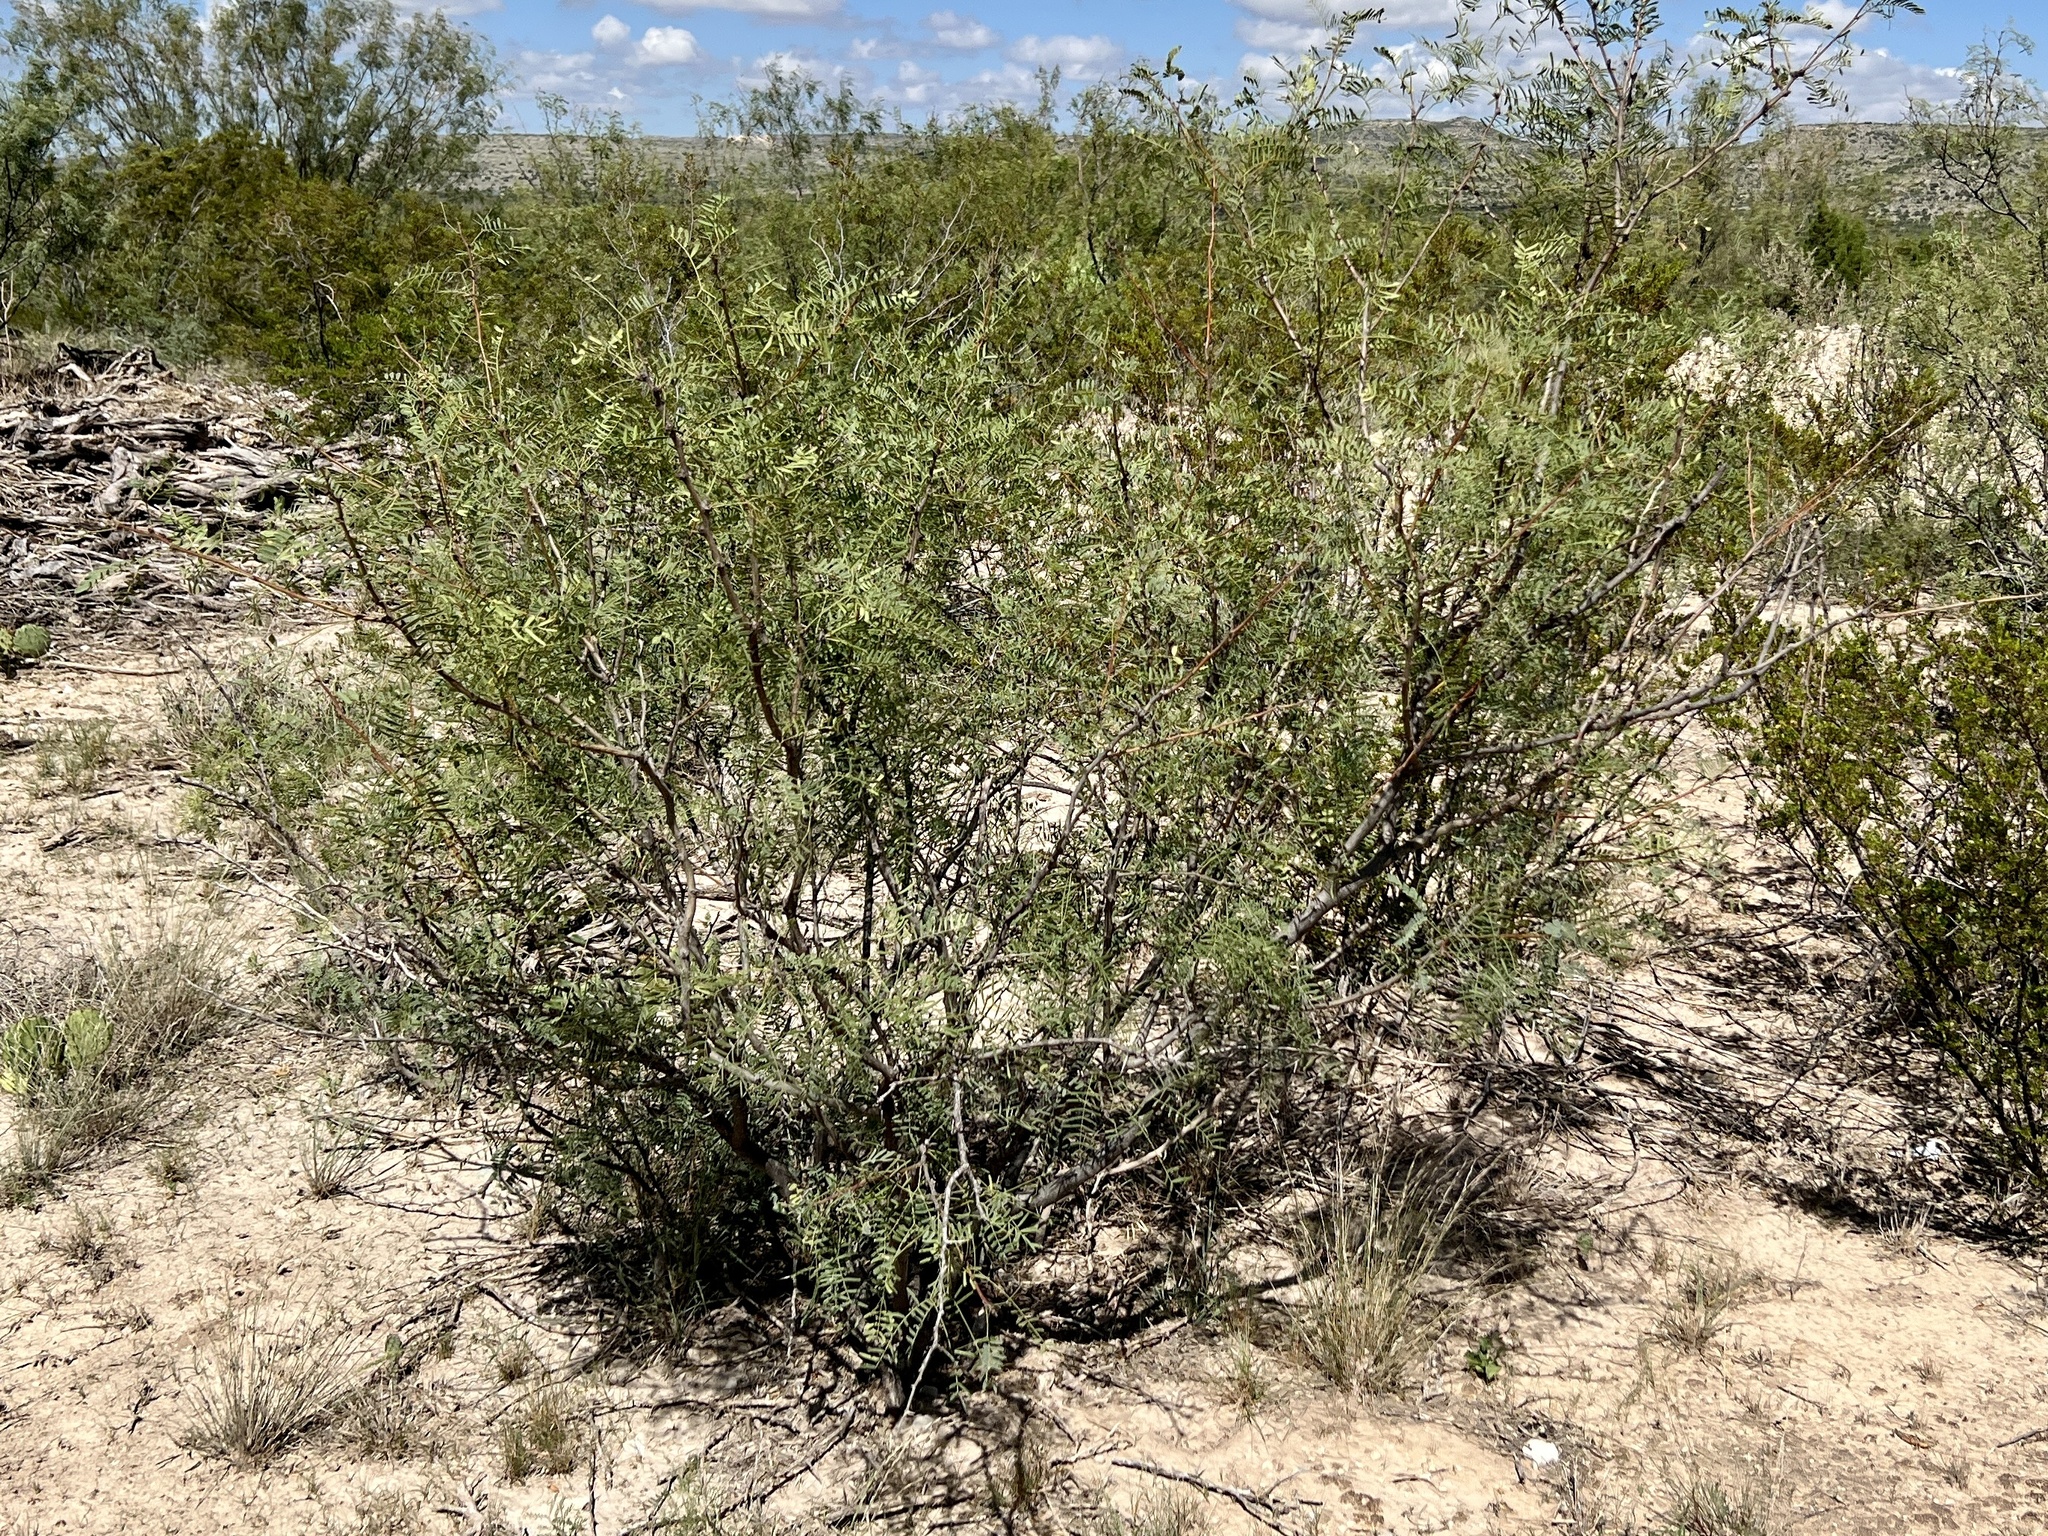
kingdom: Plantae
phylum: Tracheophyta
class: Magnoliopsida
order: Fabales
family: Fabaceae
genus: Prosopis
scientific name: Prosopis glandulosa
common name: Honey mesquite
